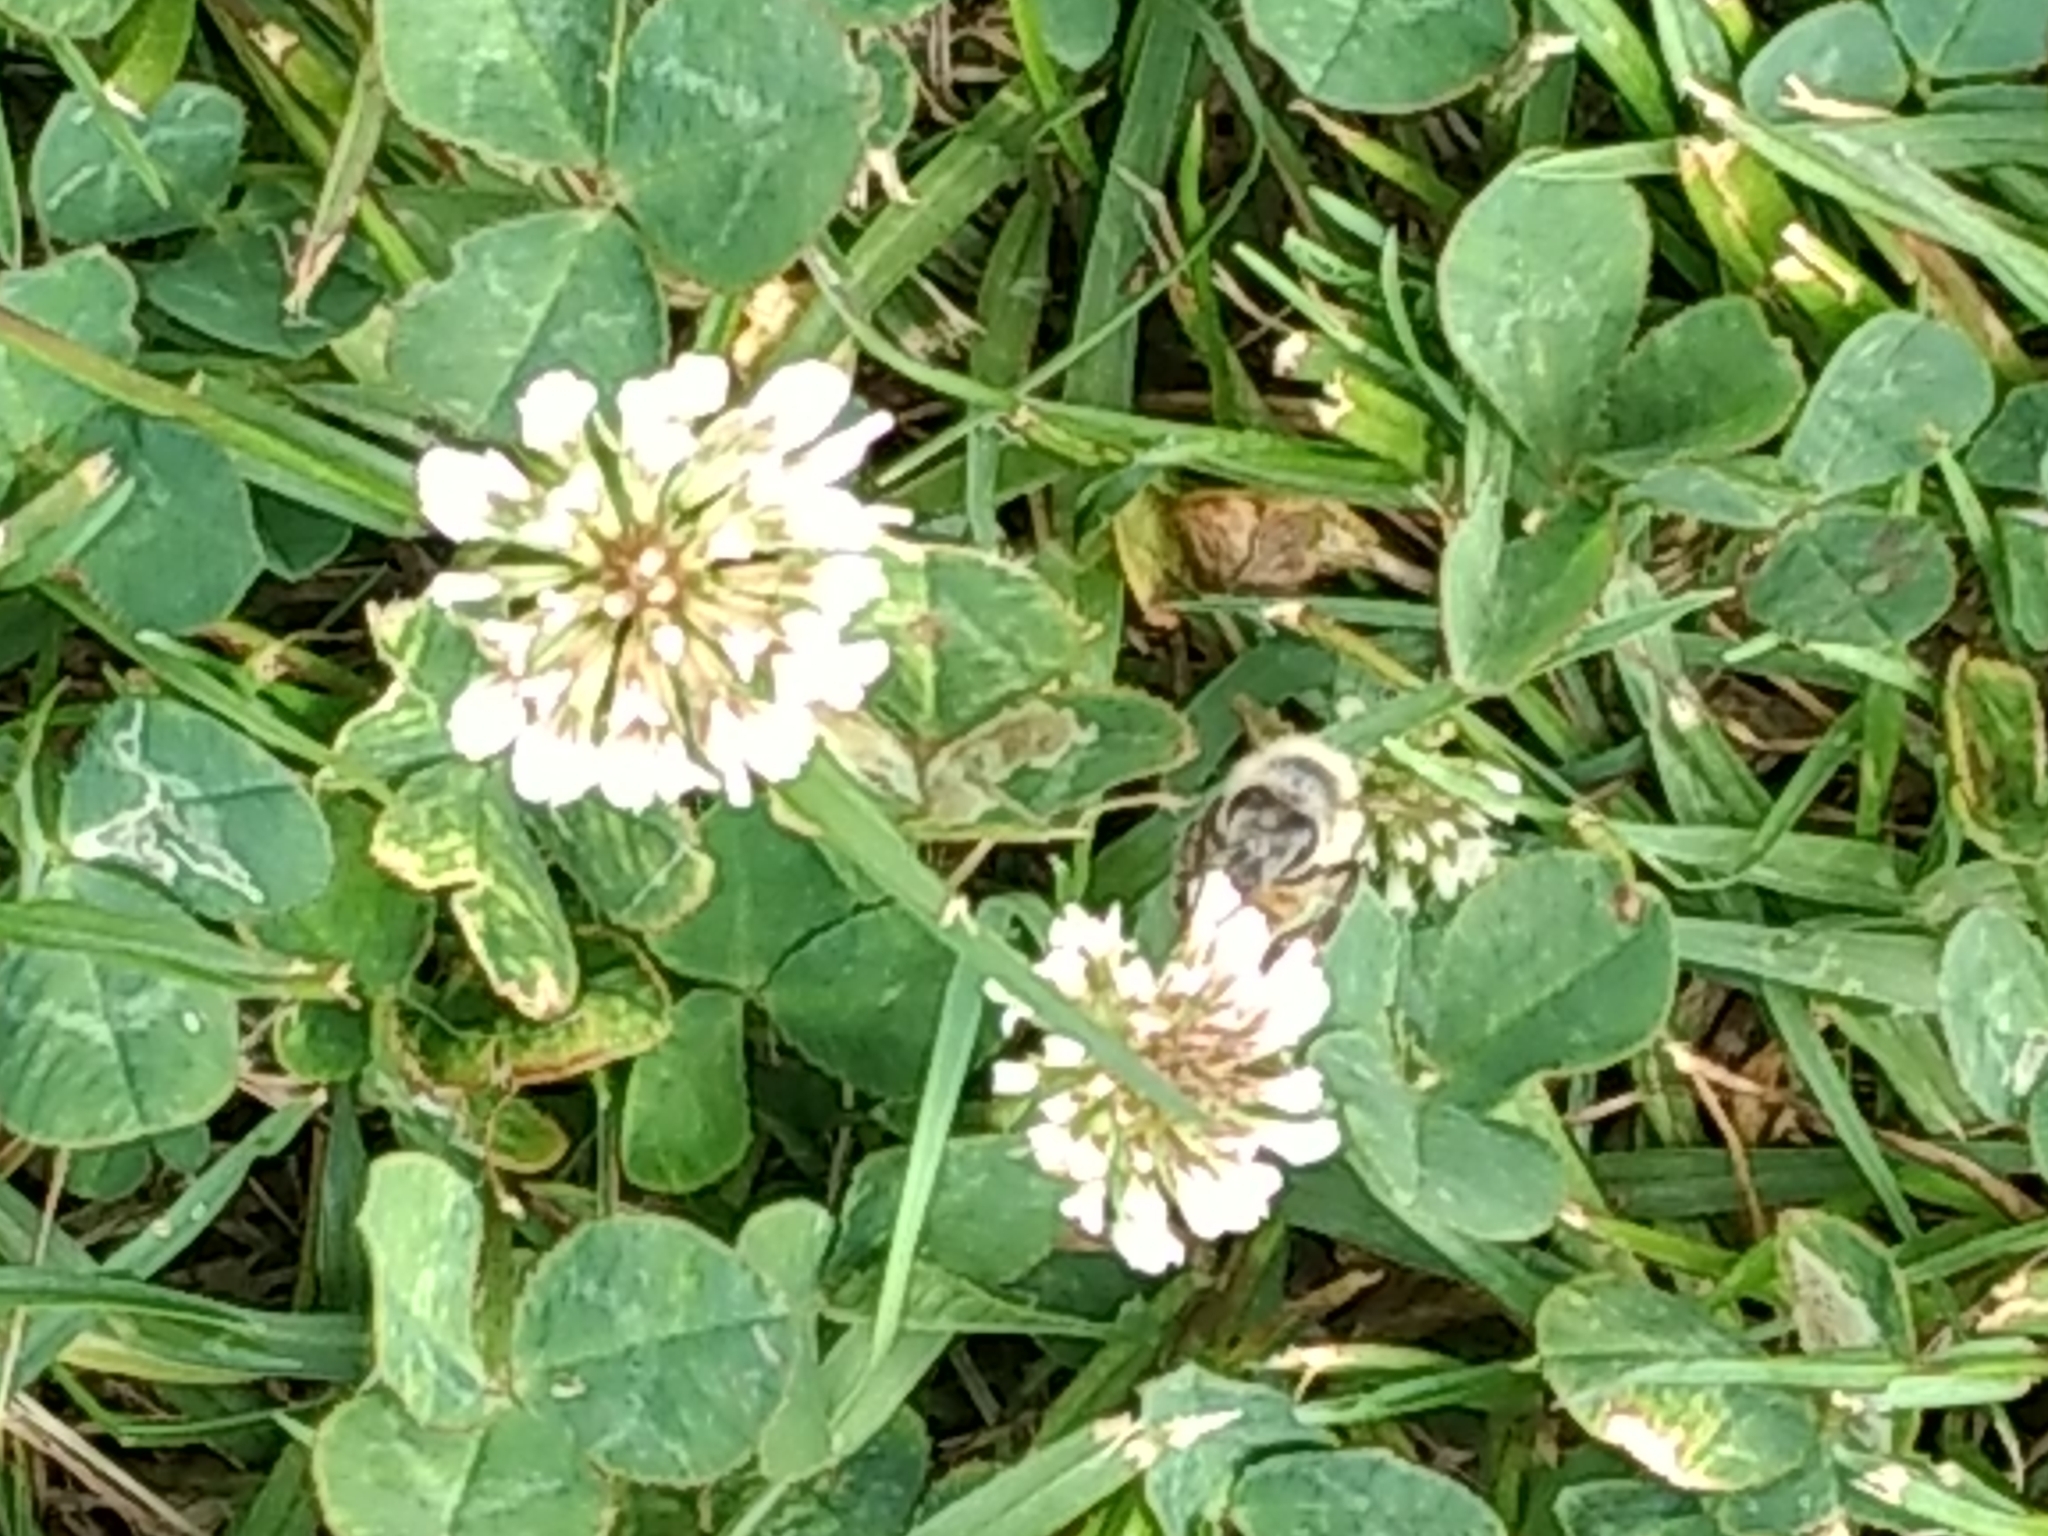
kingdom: Animalia
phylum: Arthropoda
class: Insecta
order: Hymenoptera
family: Apidae
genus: Apis
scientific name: Apis mellifera
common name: Honey bee
